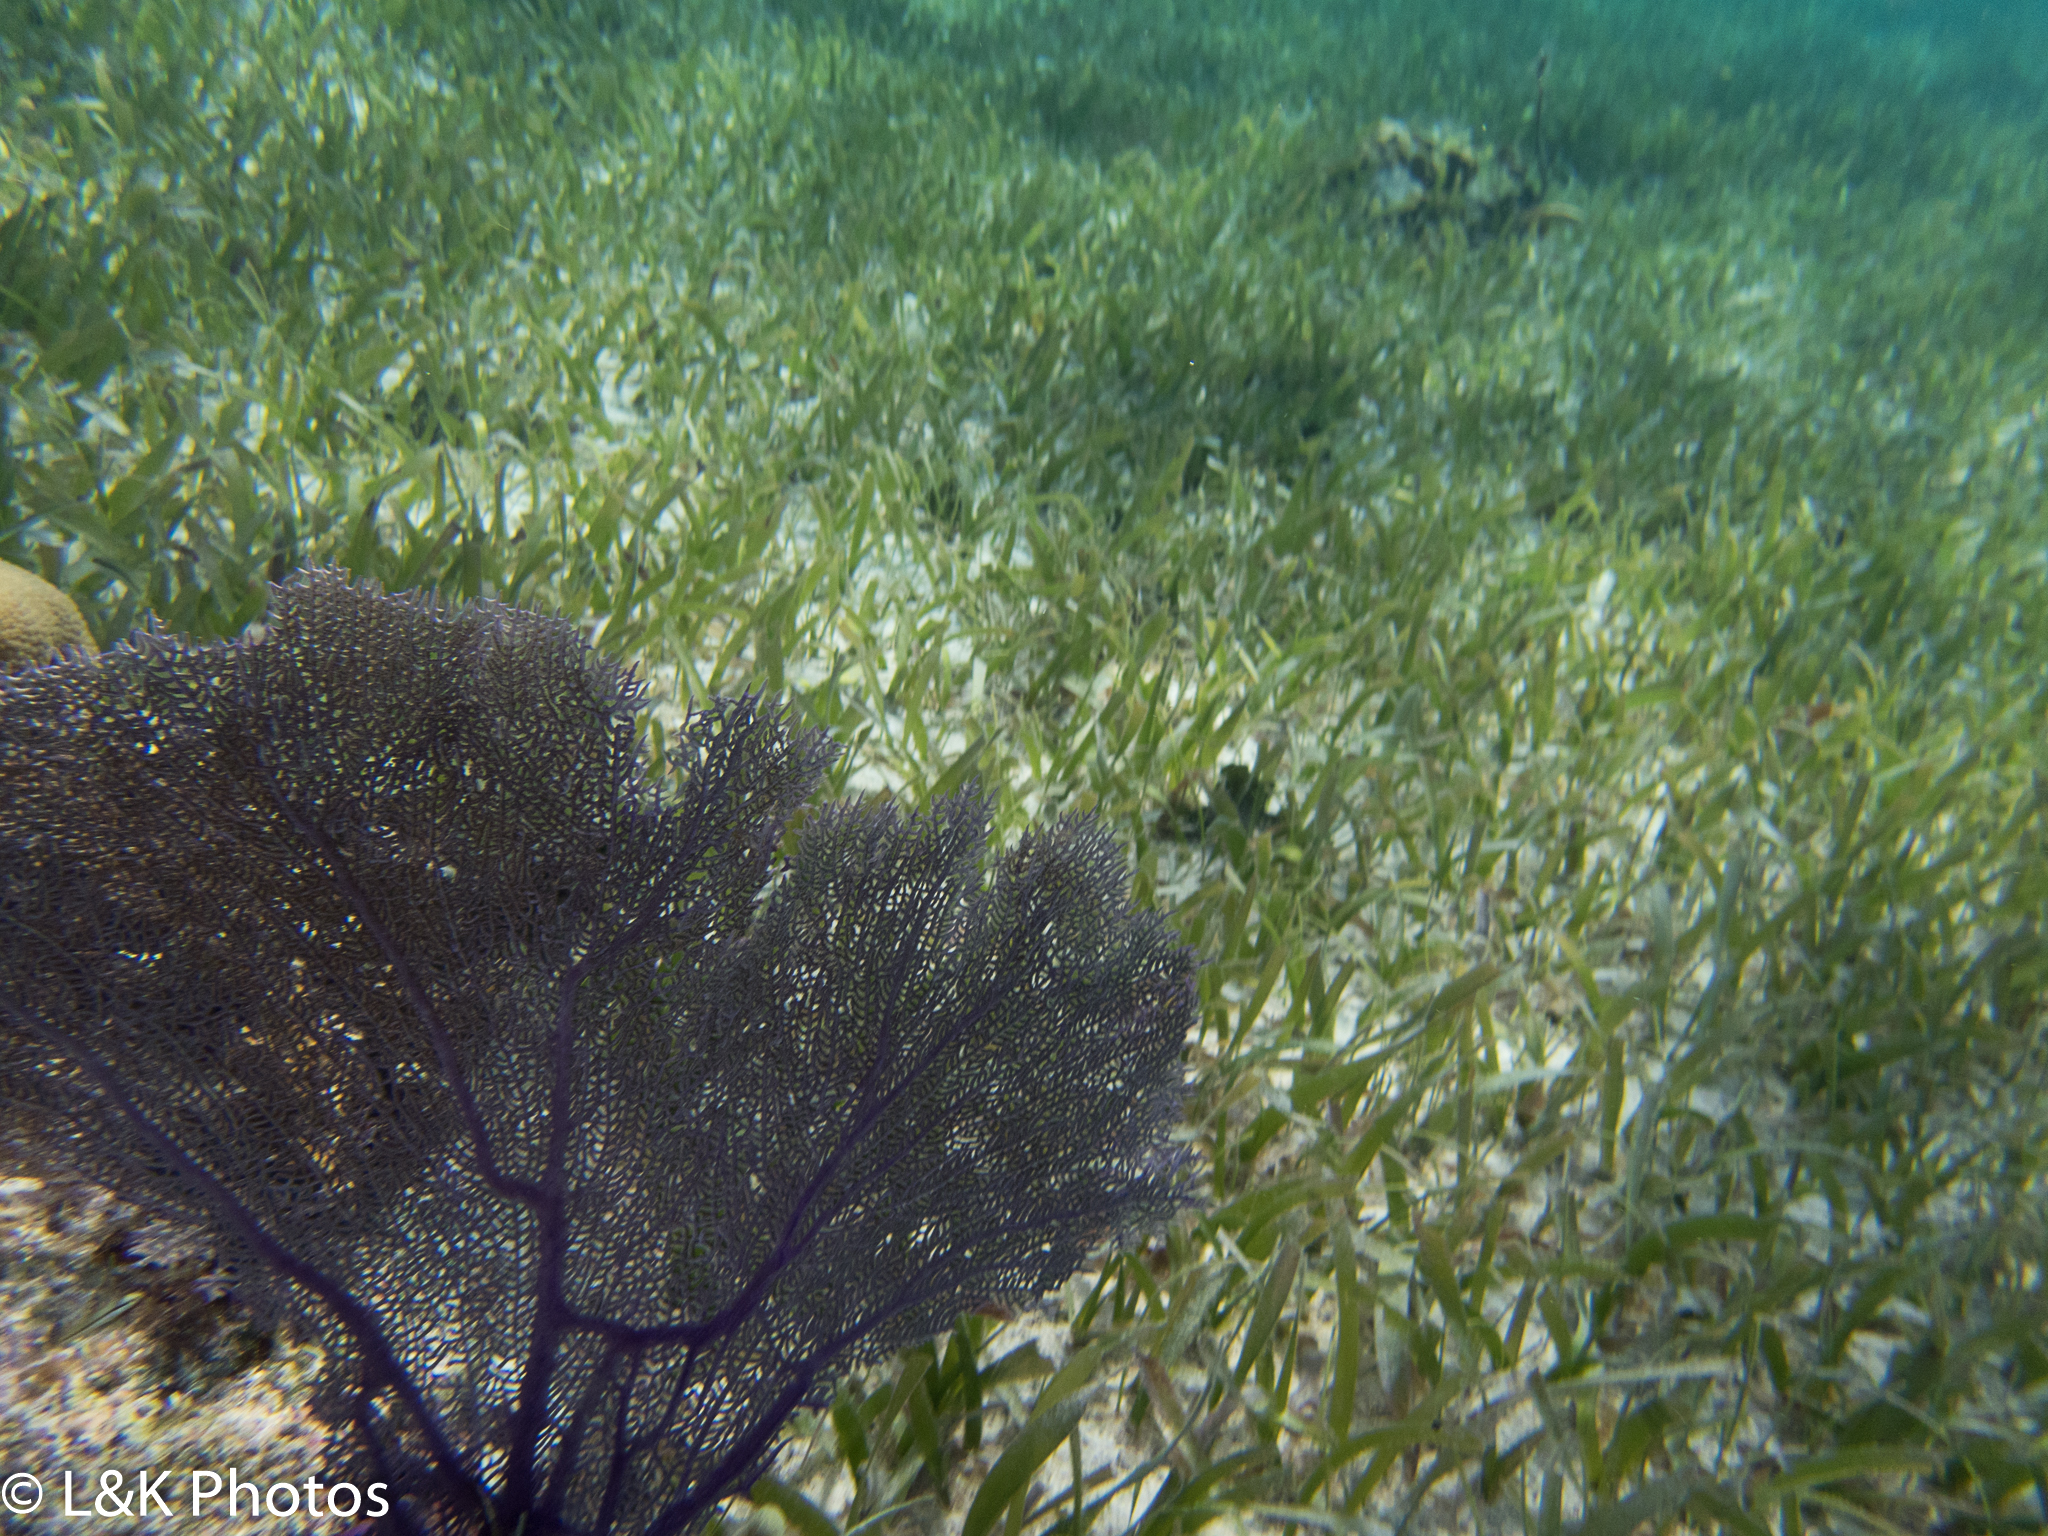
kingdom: Animalia
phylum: Cnidaria
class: Anthozoa
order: Malacalcyonacea
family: Gorgoniidae
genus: Gorgonia
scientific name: Gorgonia ventalina
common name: Common sea fan
